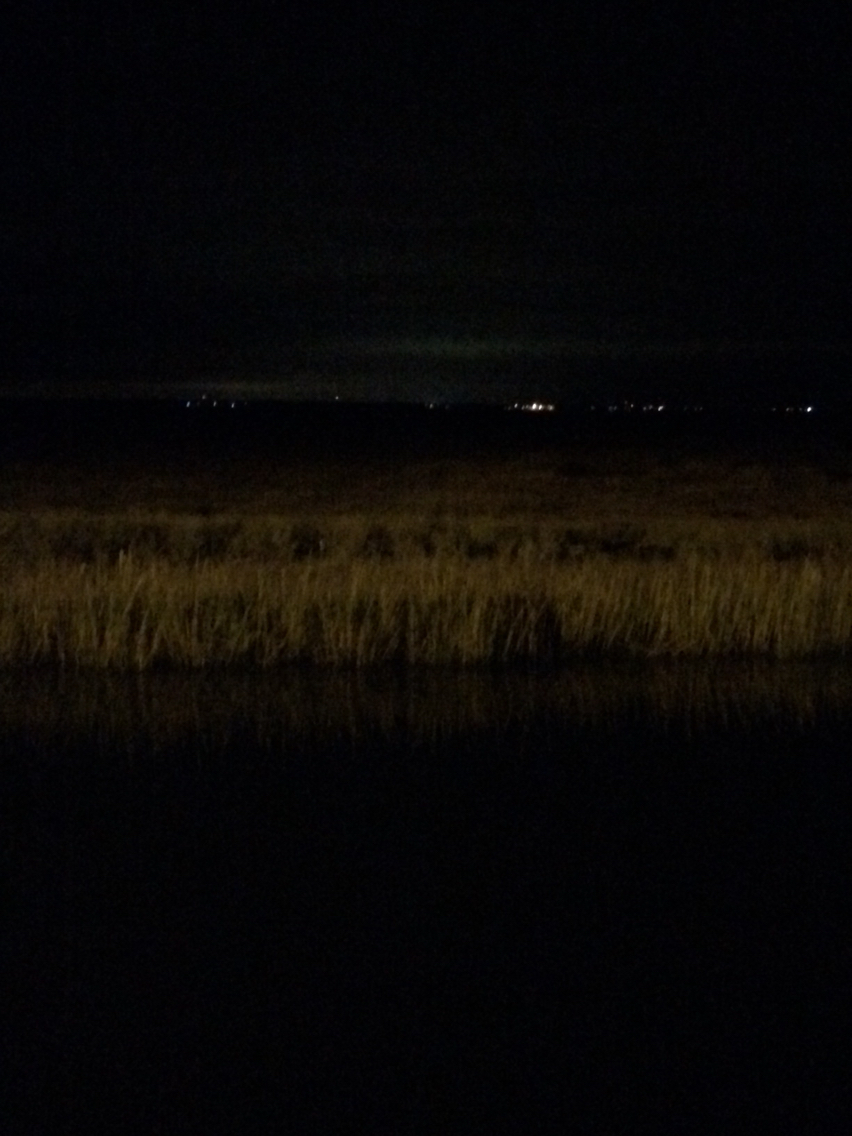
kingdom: Plantae
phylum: Tracheophyta
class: Liliopsida
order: Poales
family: Poaceae
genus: Sporobolus
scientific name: Sporobolus alterniflorus
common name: Atlantic cordgrass
